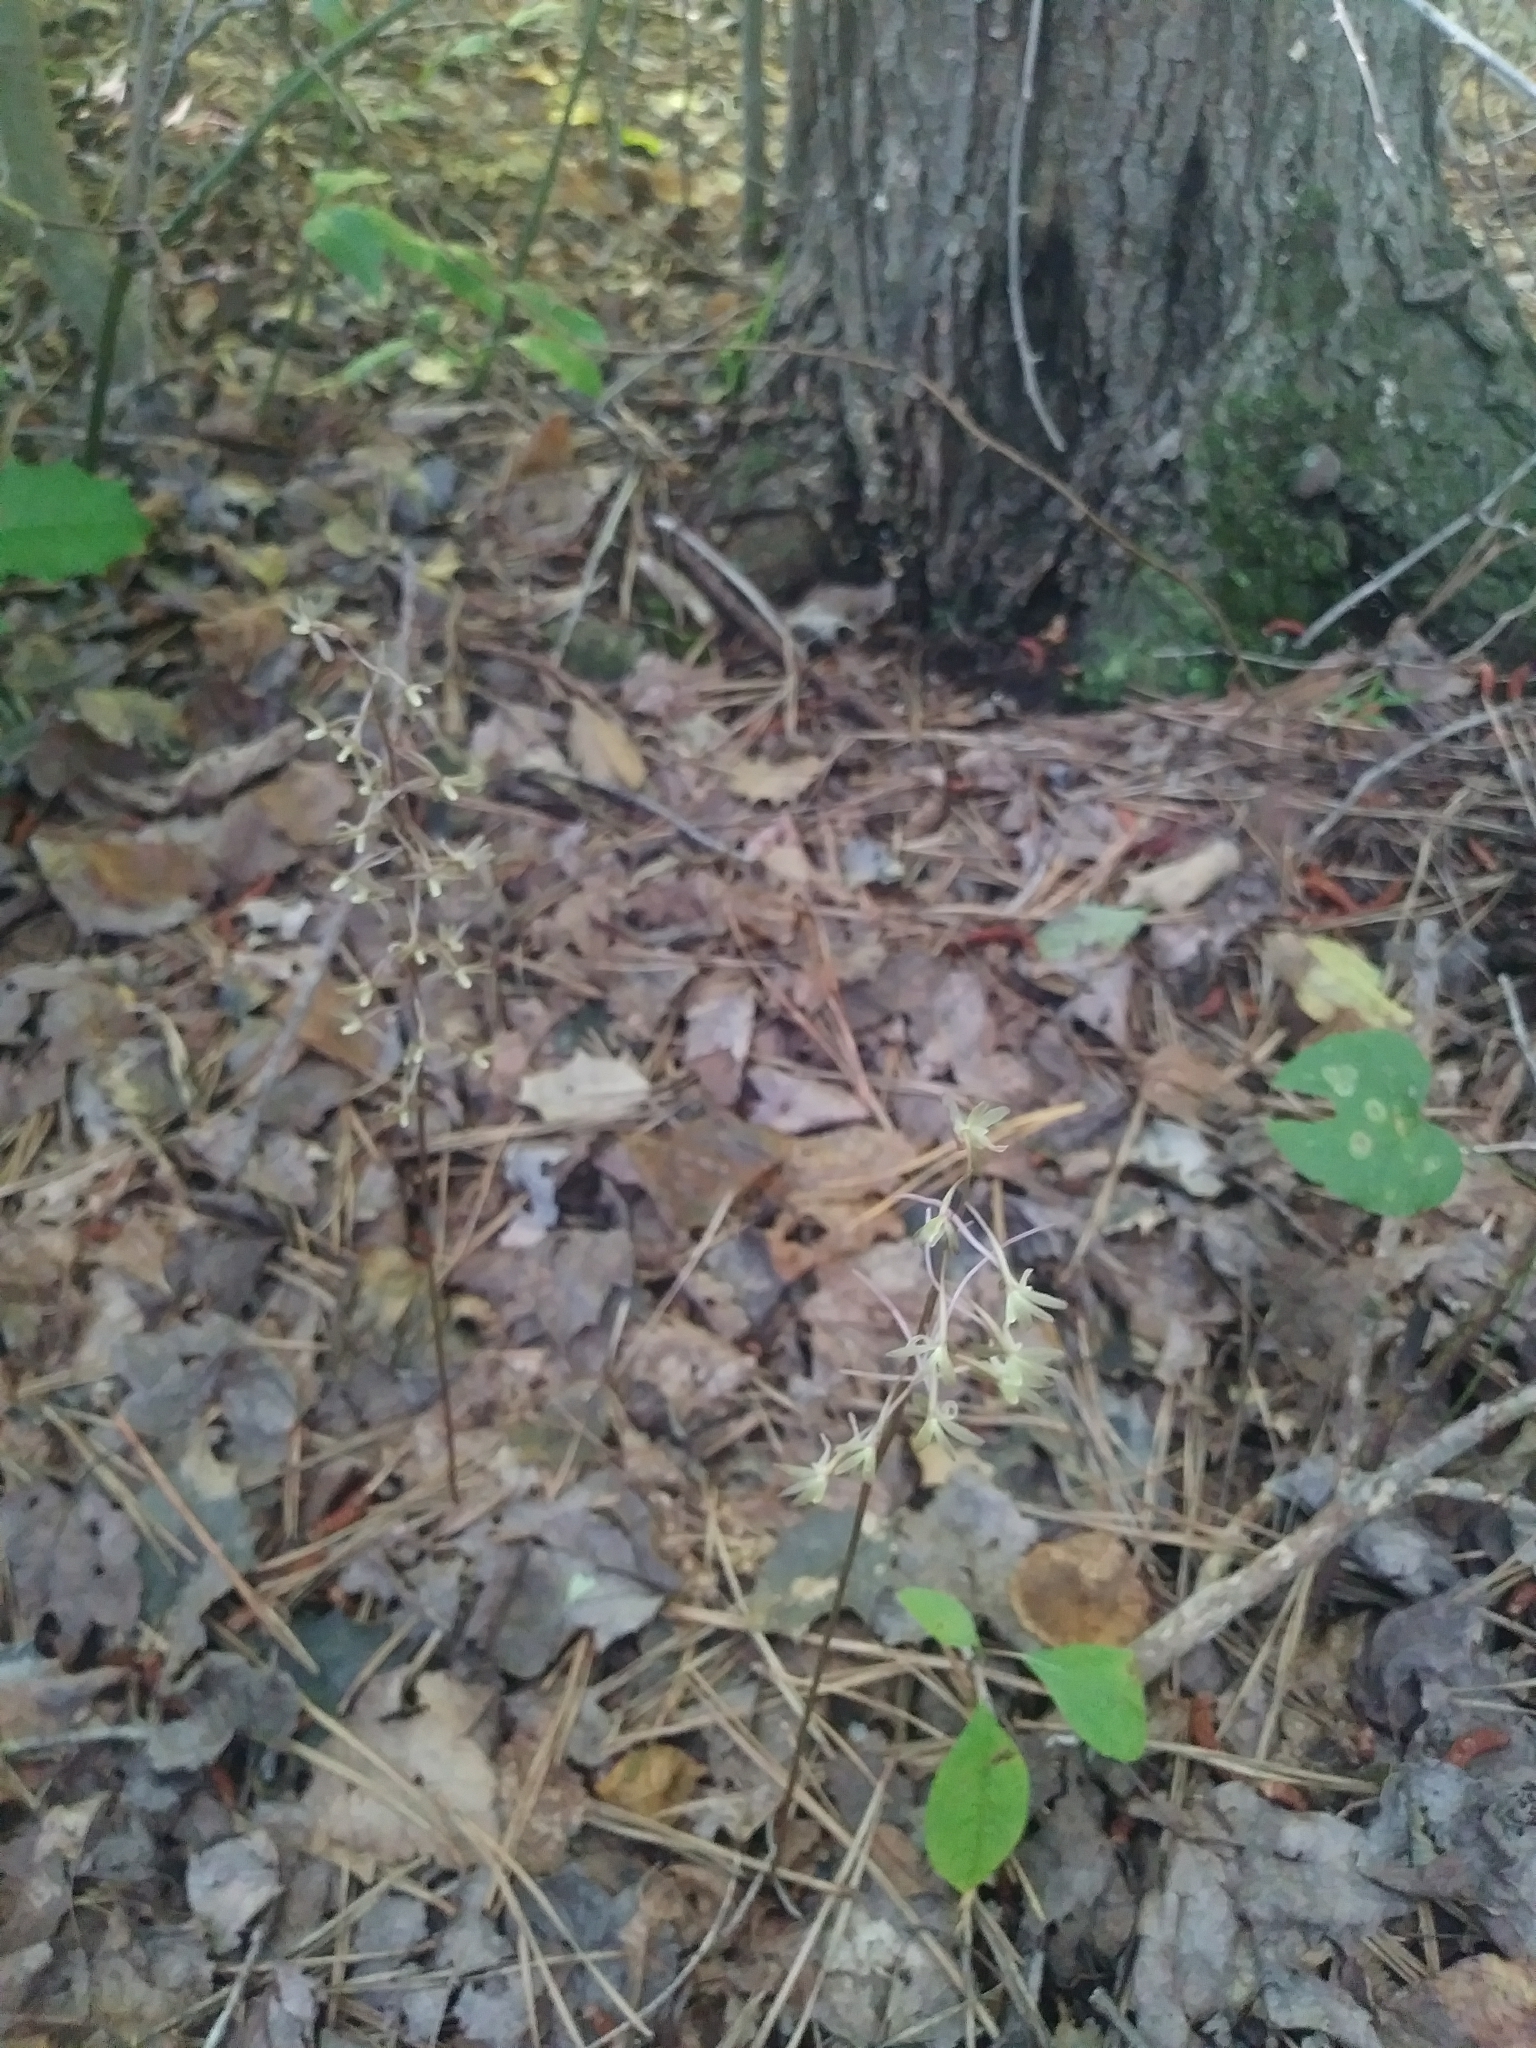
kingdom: Plantae
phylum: Tracheophyta
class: Liliopsida
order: Asparagales
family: Orchidaceae
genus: Tipularia
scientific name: Tipularia discolor
